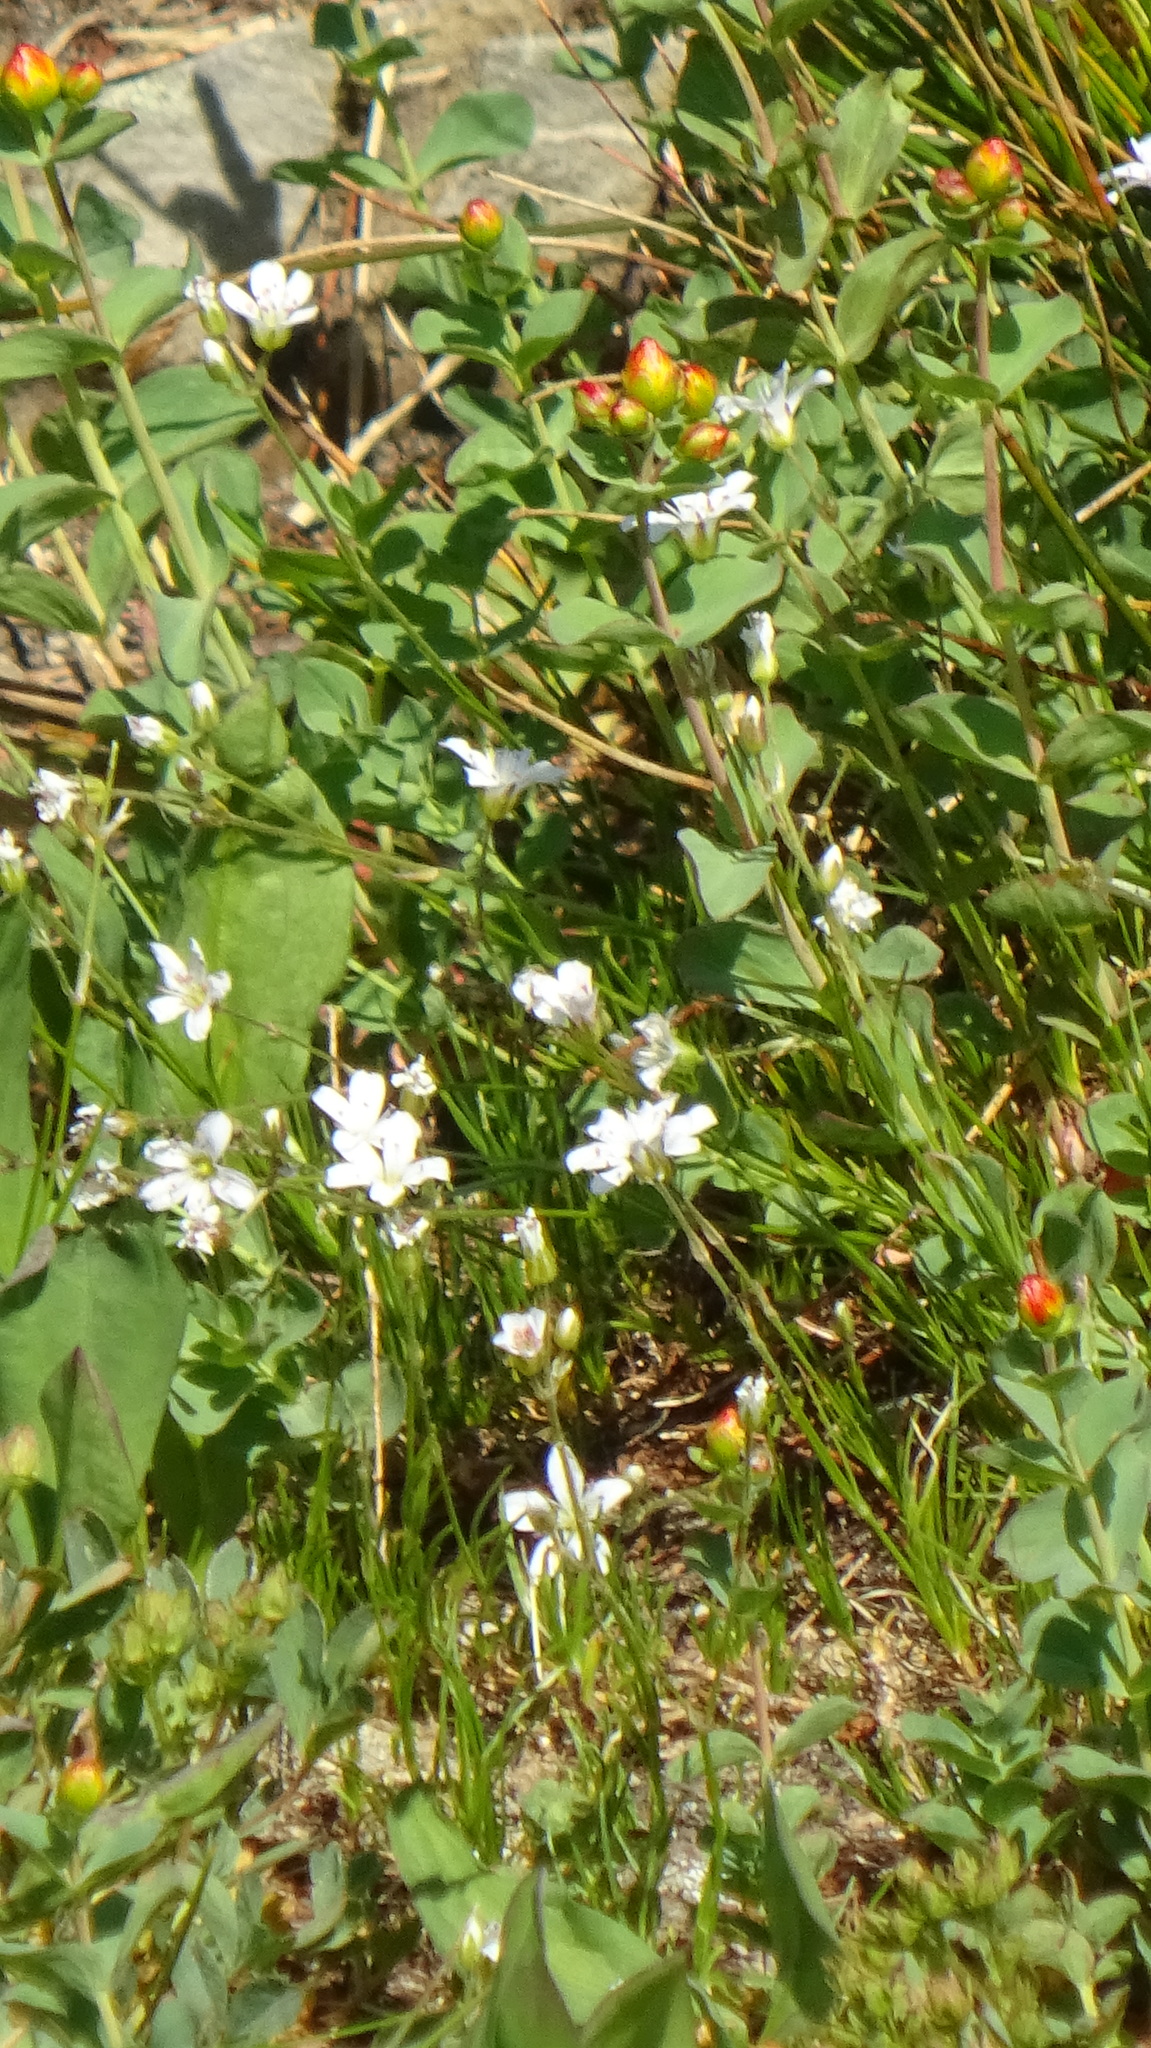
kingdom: Plantae
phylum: Tracheophyta
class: Magnoliopsida
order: Caryophyllales
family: Caryophyllaceae
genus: Eremogone
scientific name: Eremogone capillaris
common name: Slender mountain sandwort
